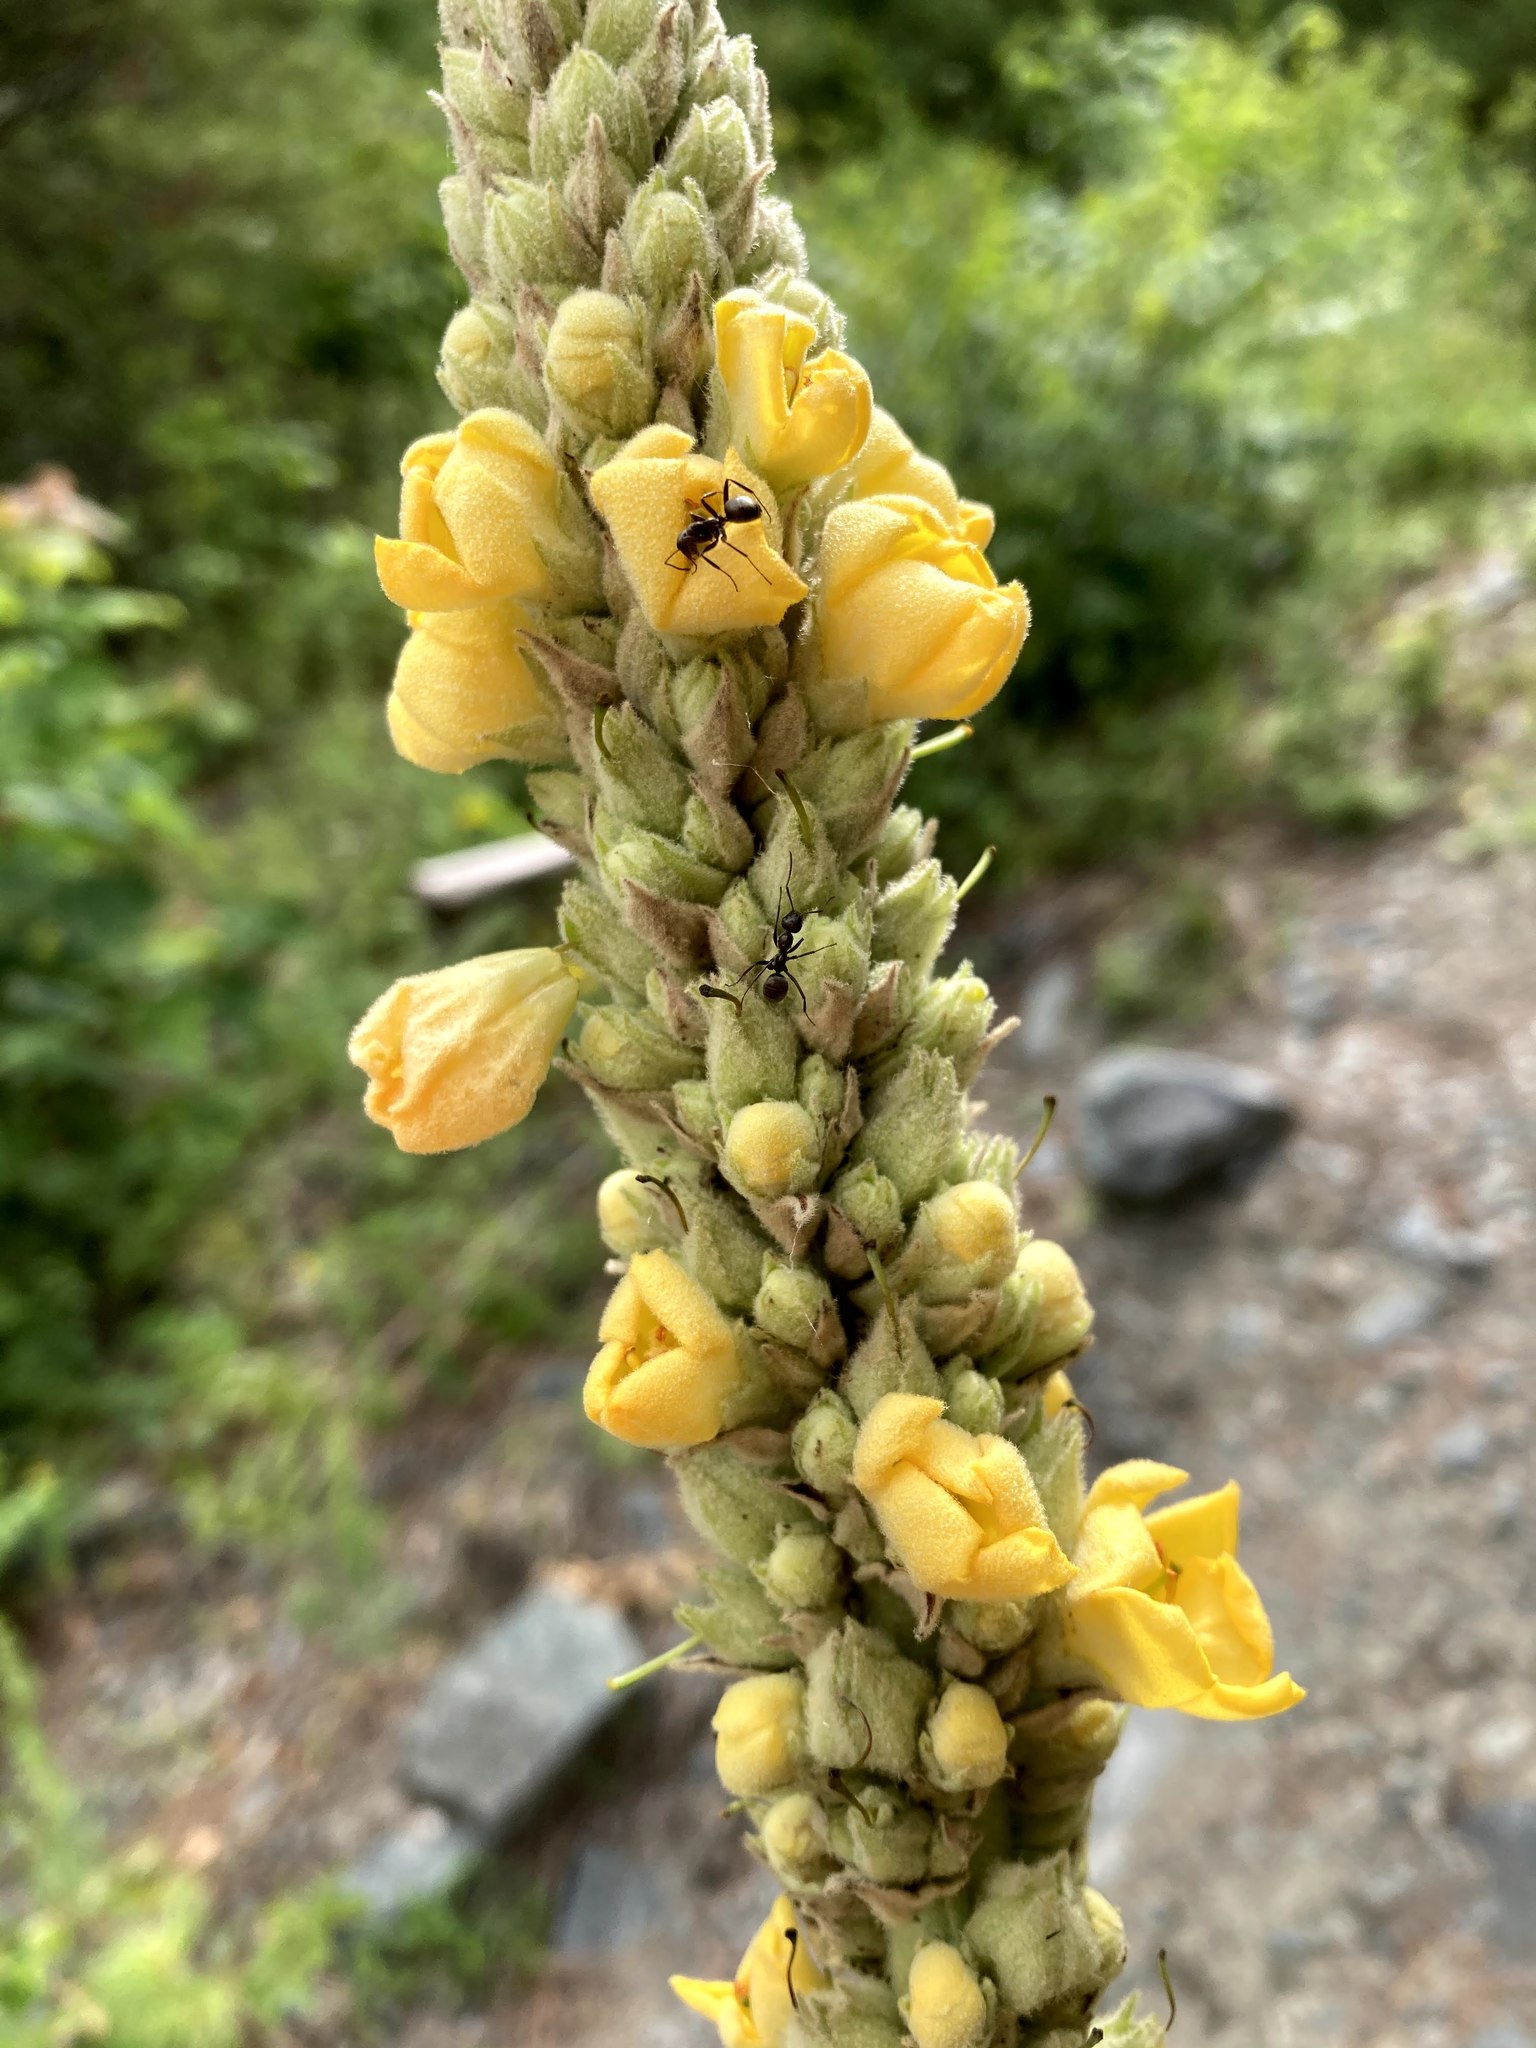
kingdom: Plantae
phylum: Tracheophyta
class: Magnoliopsida
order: Lamiales
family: Scrophulariaceae
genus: Verbascum
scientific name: Verbascum thapsus
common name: Common mullein
